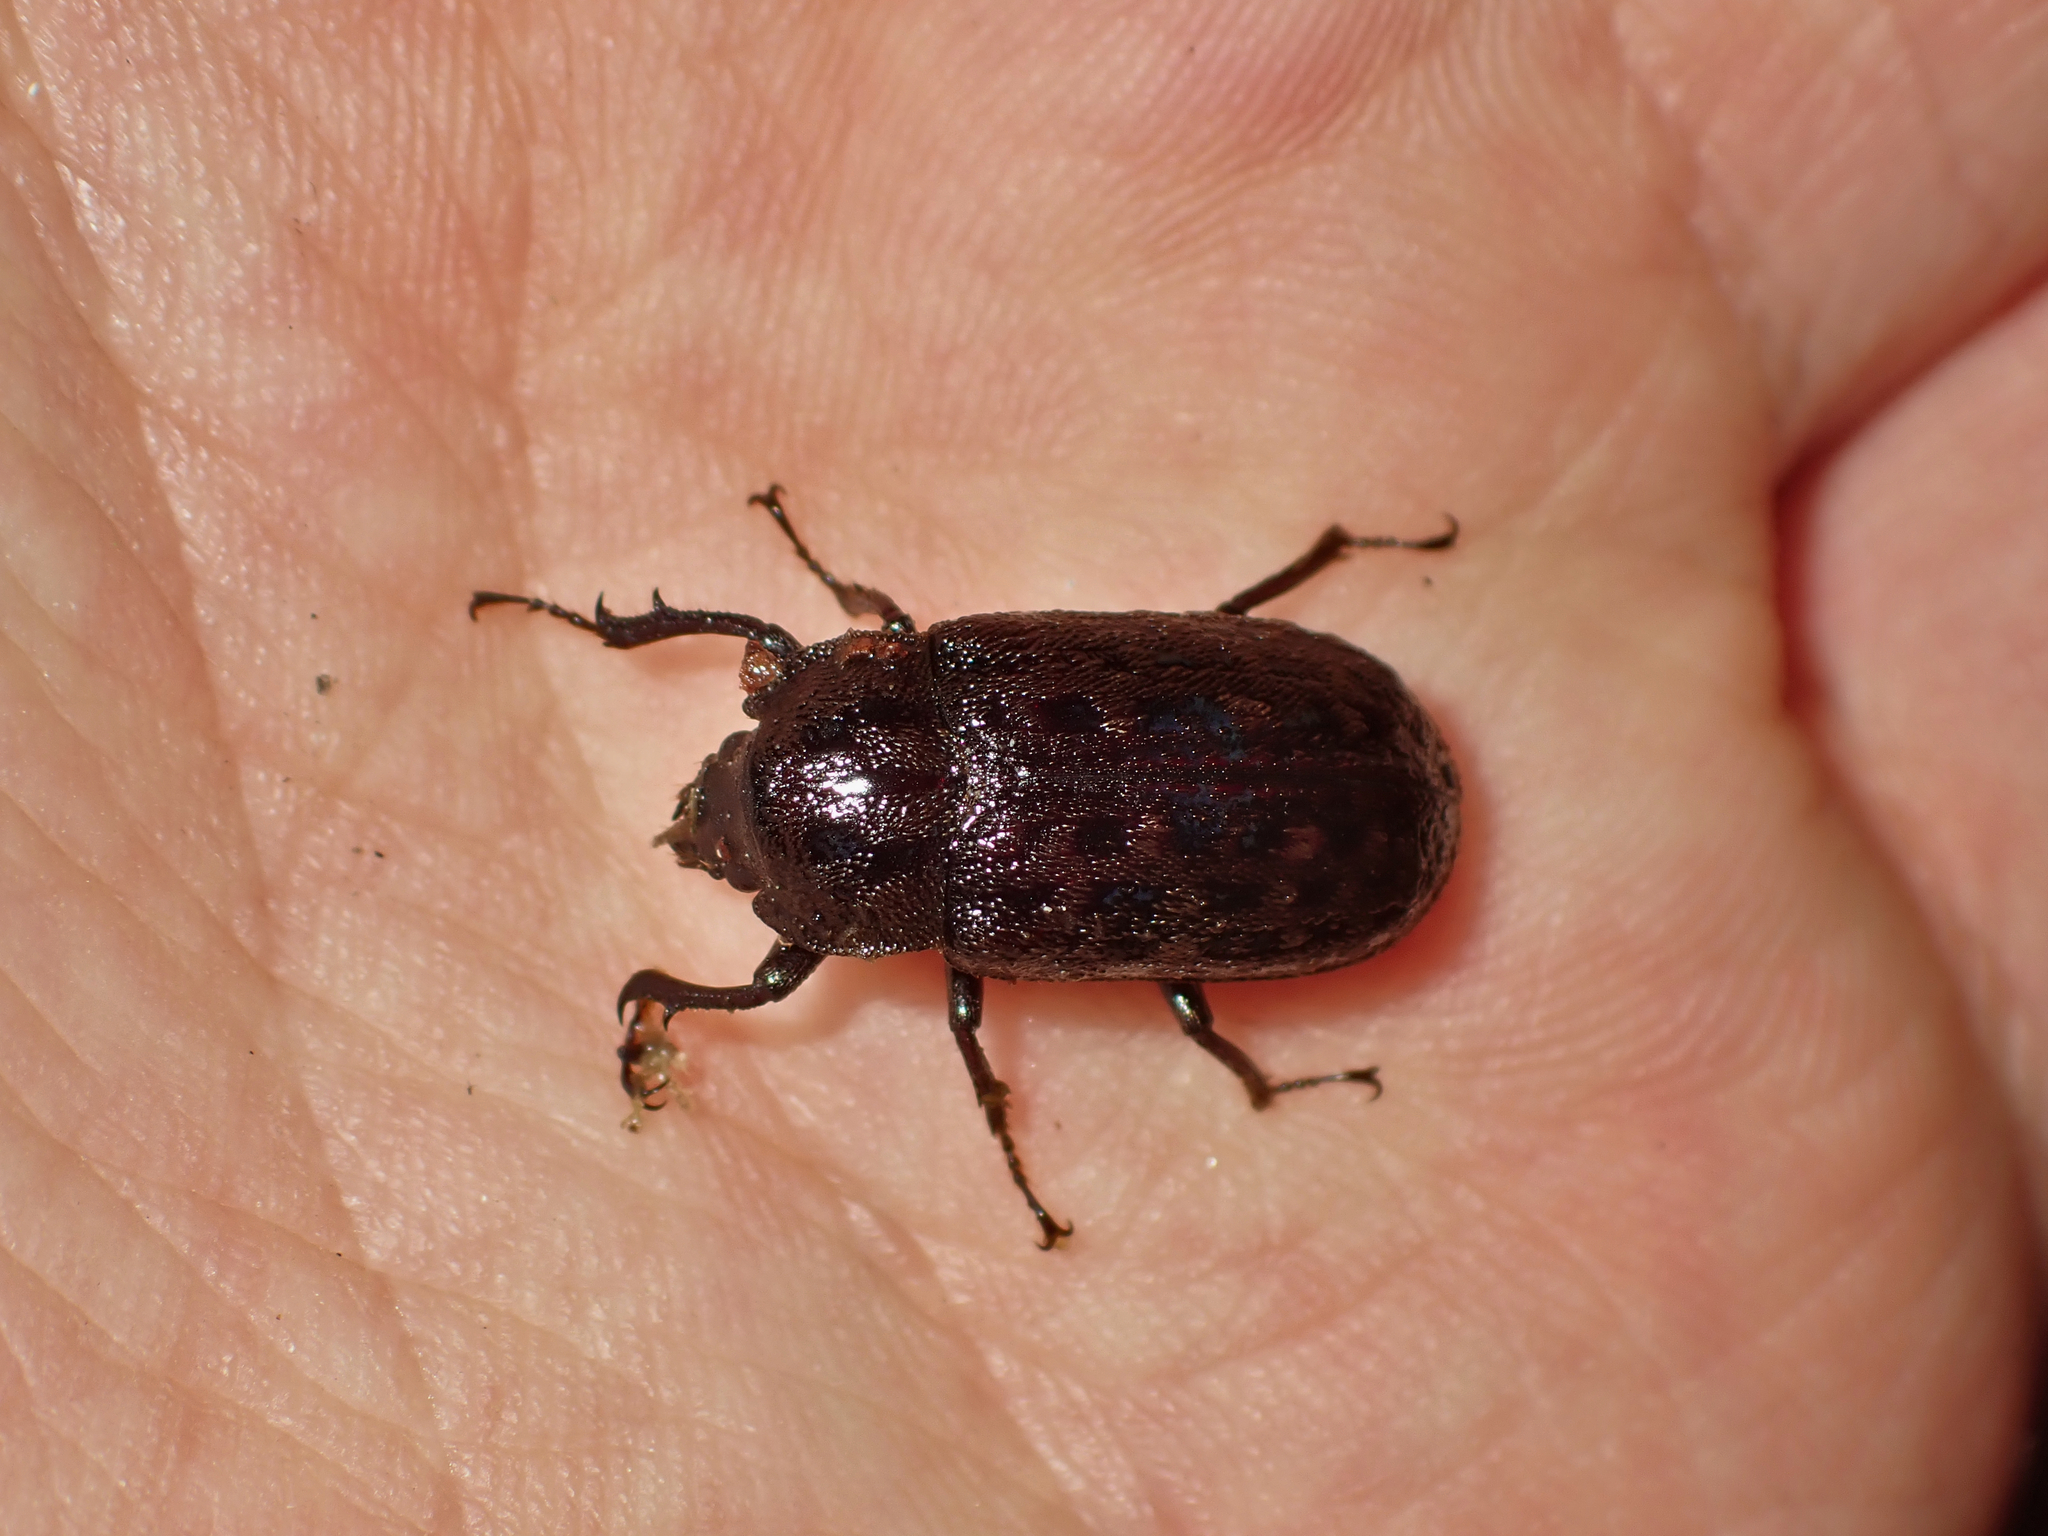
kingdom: Animalia
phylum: Arthropoda
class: Insecta
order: Coleoptera
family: Lucanidae
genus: Mitophyllus
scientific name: Mitophyllus parrianus
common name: Parry's stag beetle
